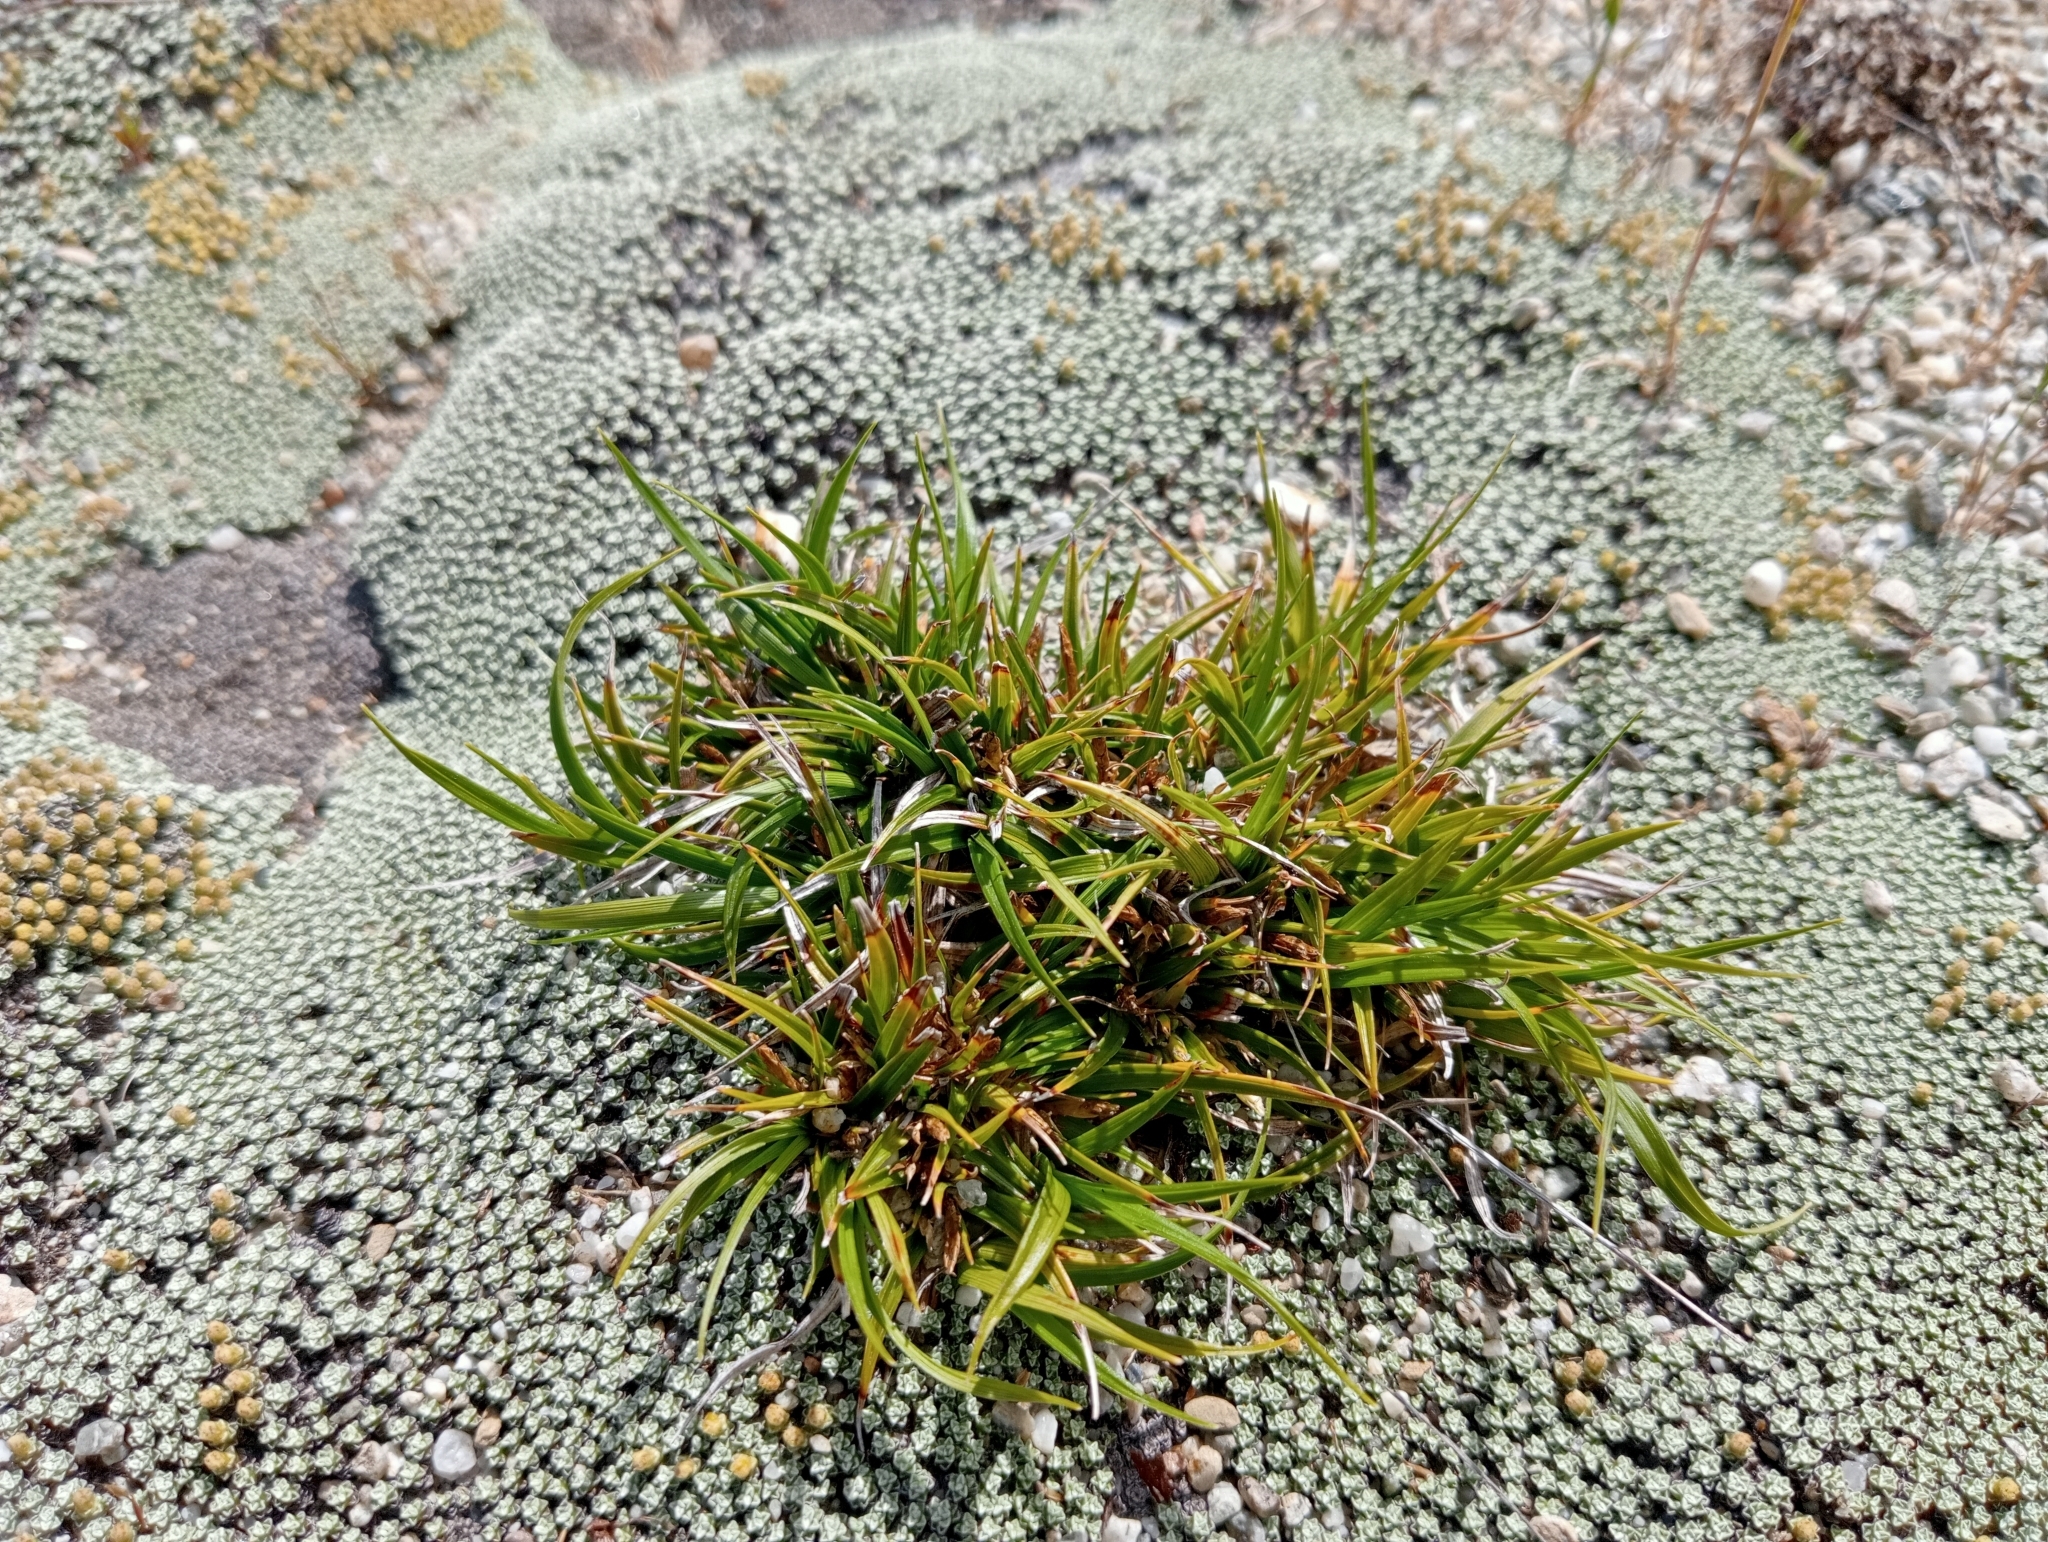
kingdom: Plantae
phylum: Tracheophyta
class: Liliopsida
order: Poales
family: Cyperaceae
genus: Carex
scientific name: Carex breviculmis
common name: Asian shortstem sedge
